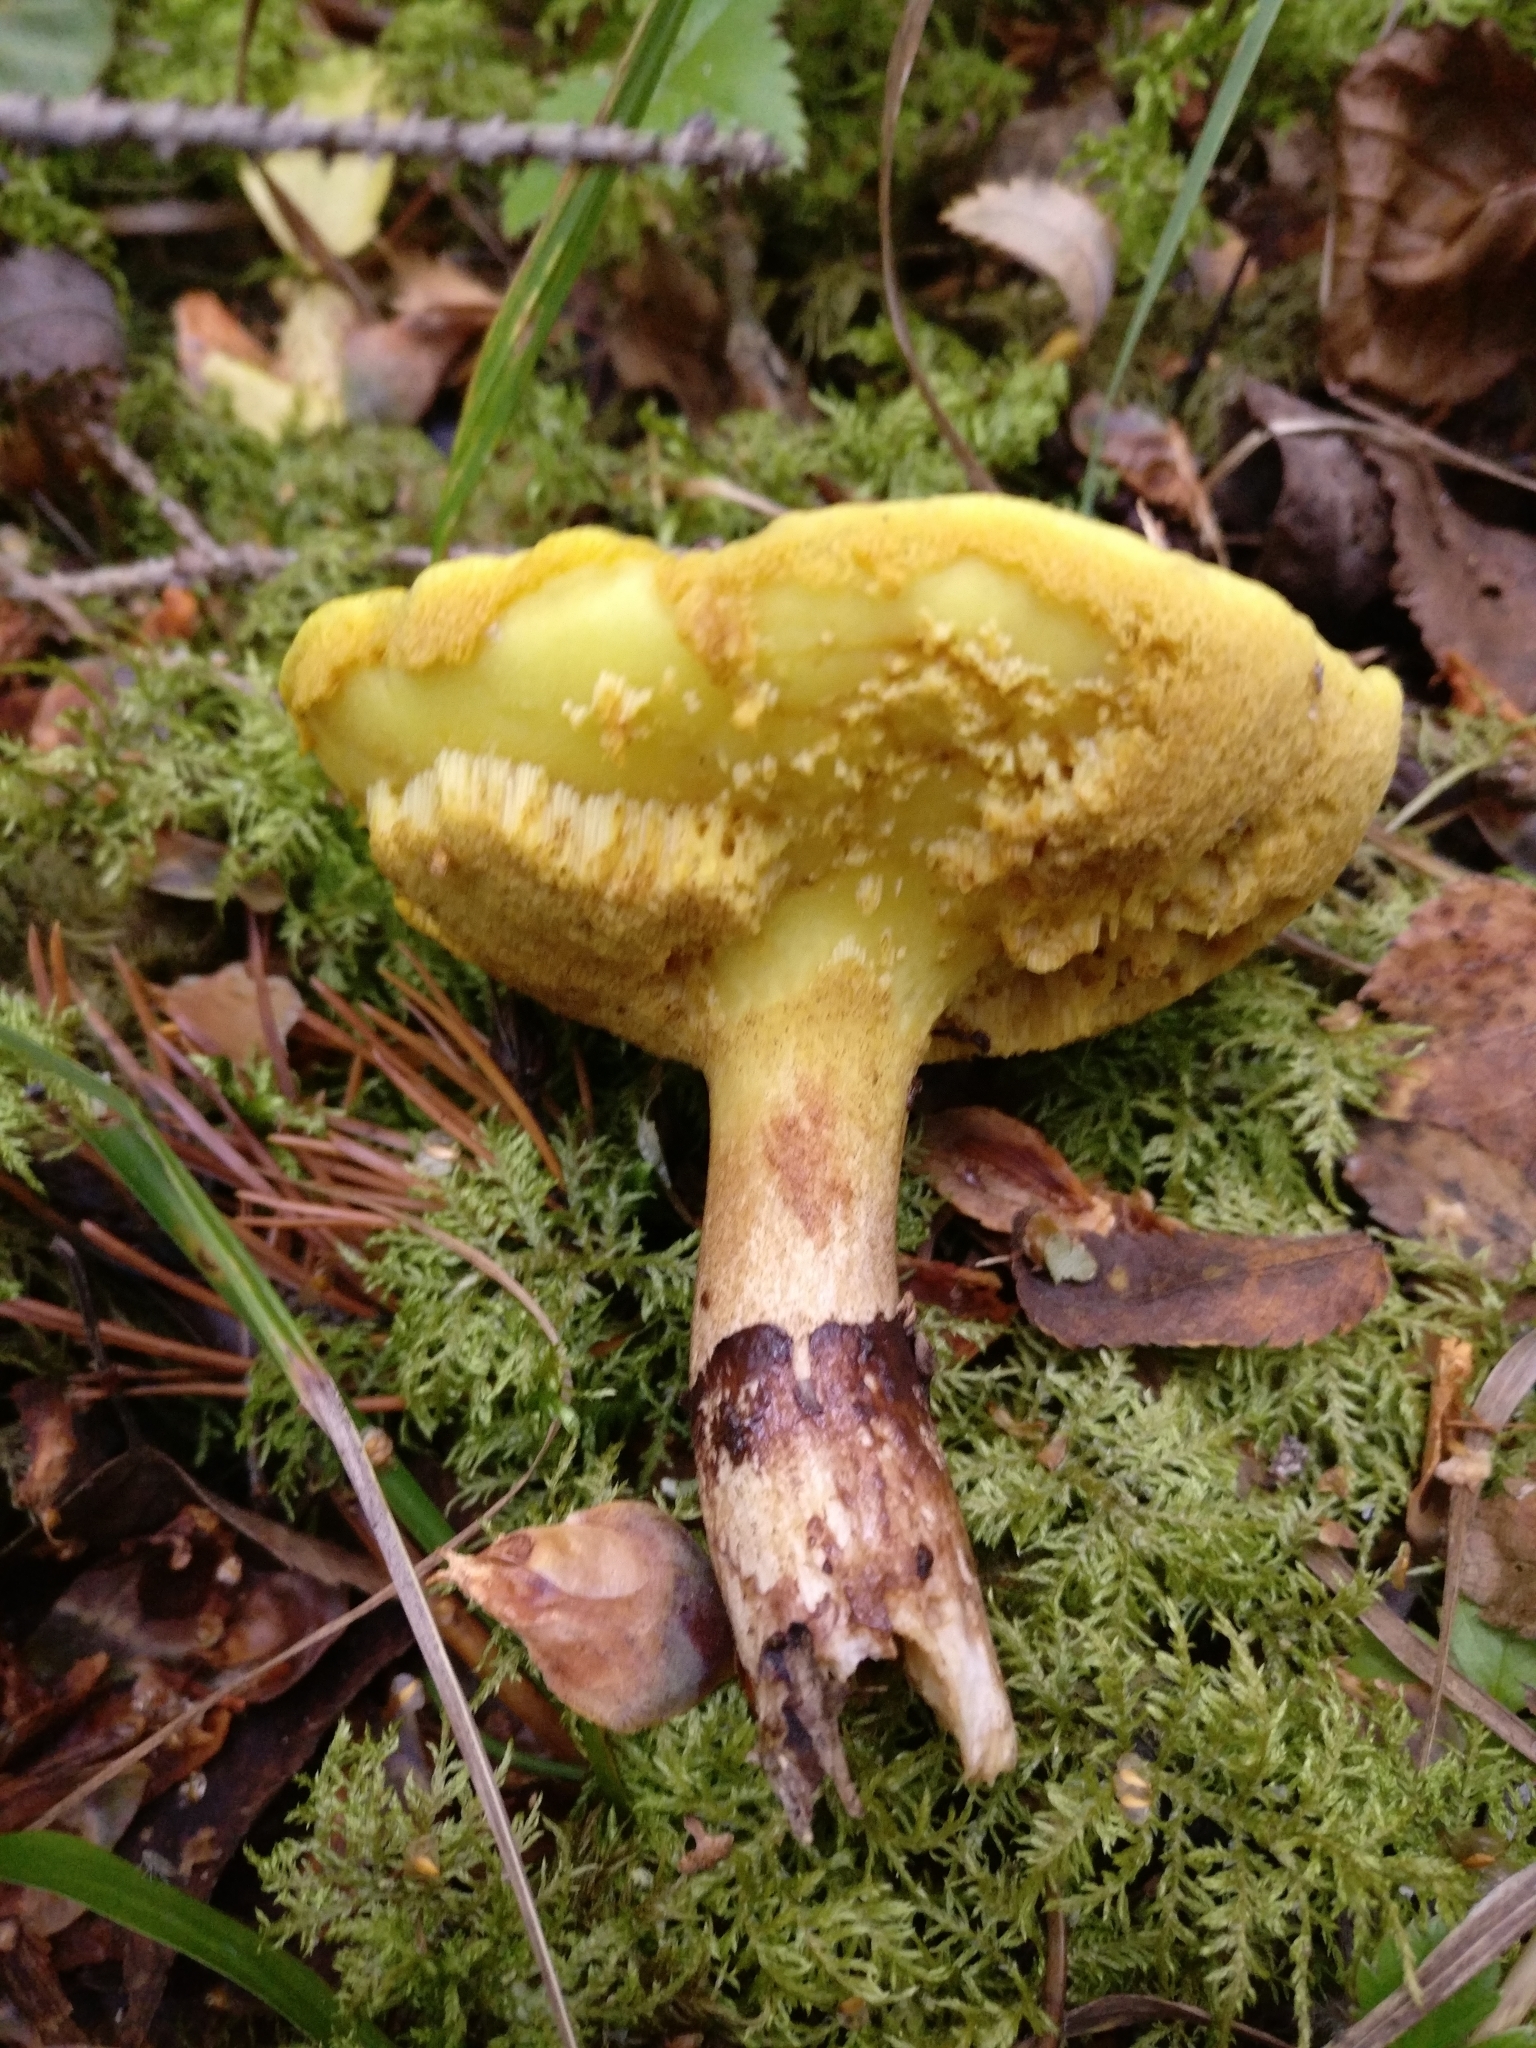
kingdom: Fungi
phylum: Basidiomycota
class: Agaricomycetes
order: Boletales
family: Suillaceae
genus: Suillus
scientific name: Suillus luteus
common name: Slippery jack
